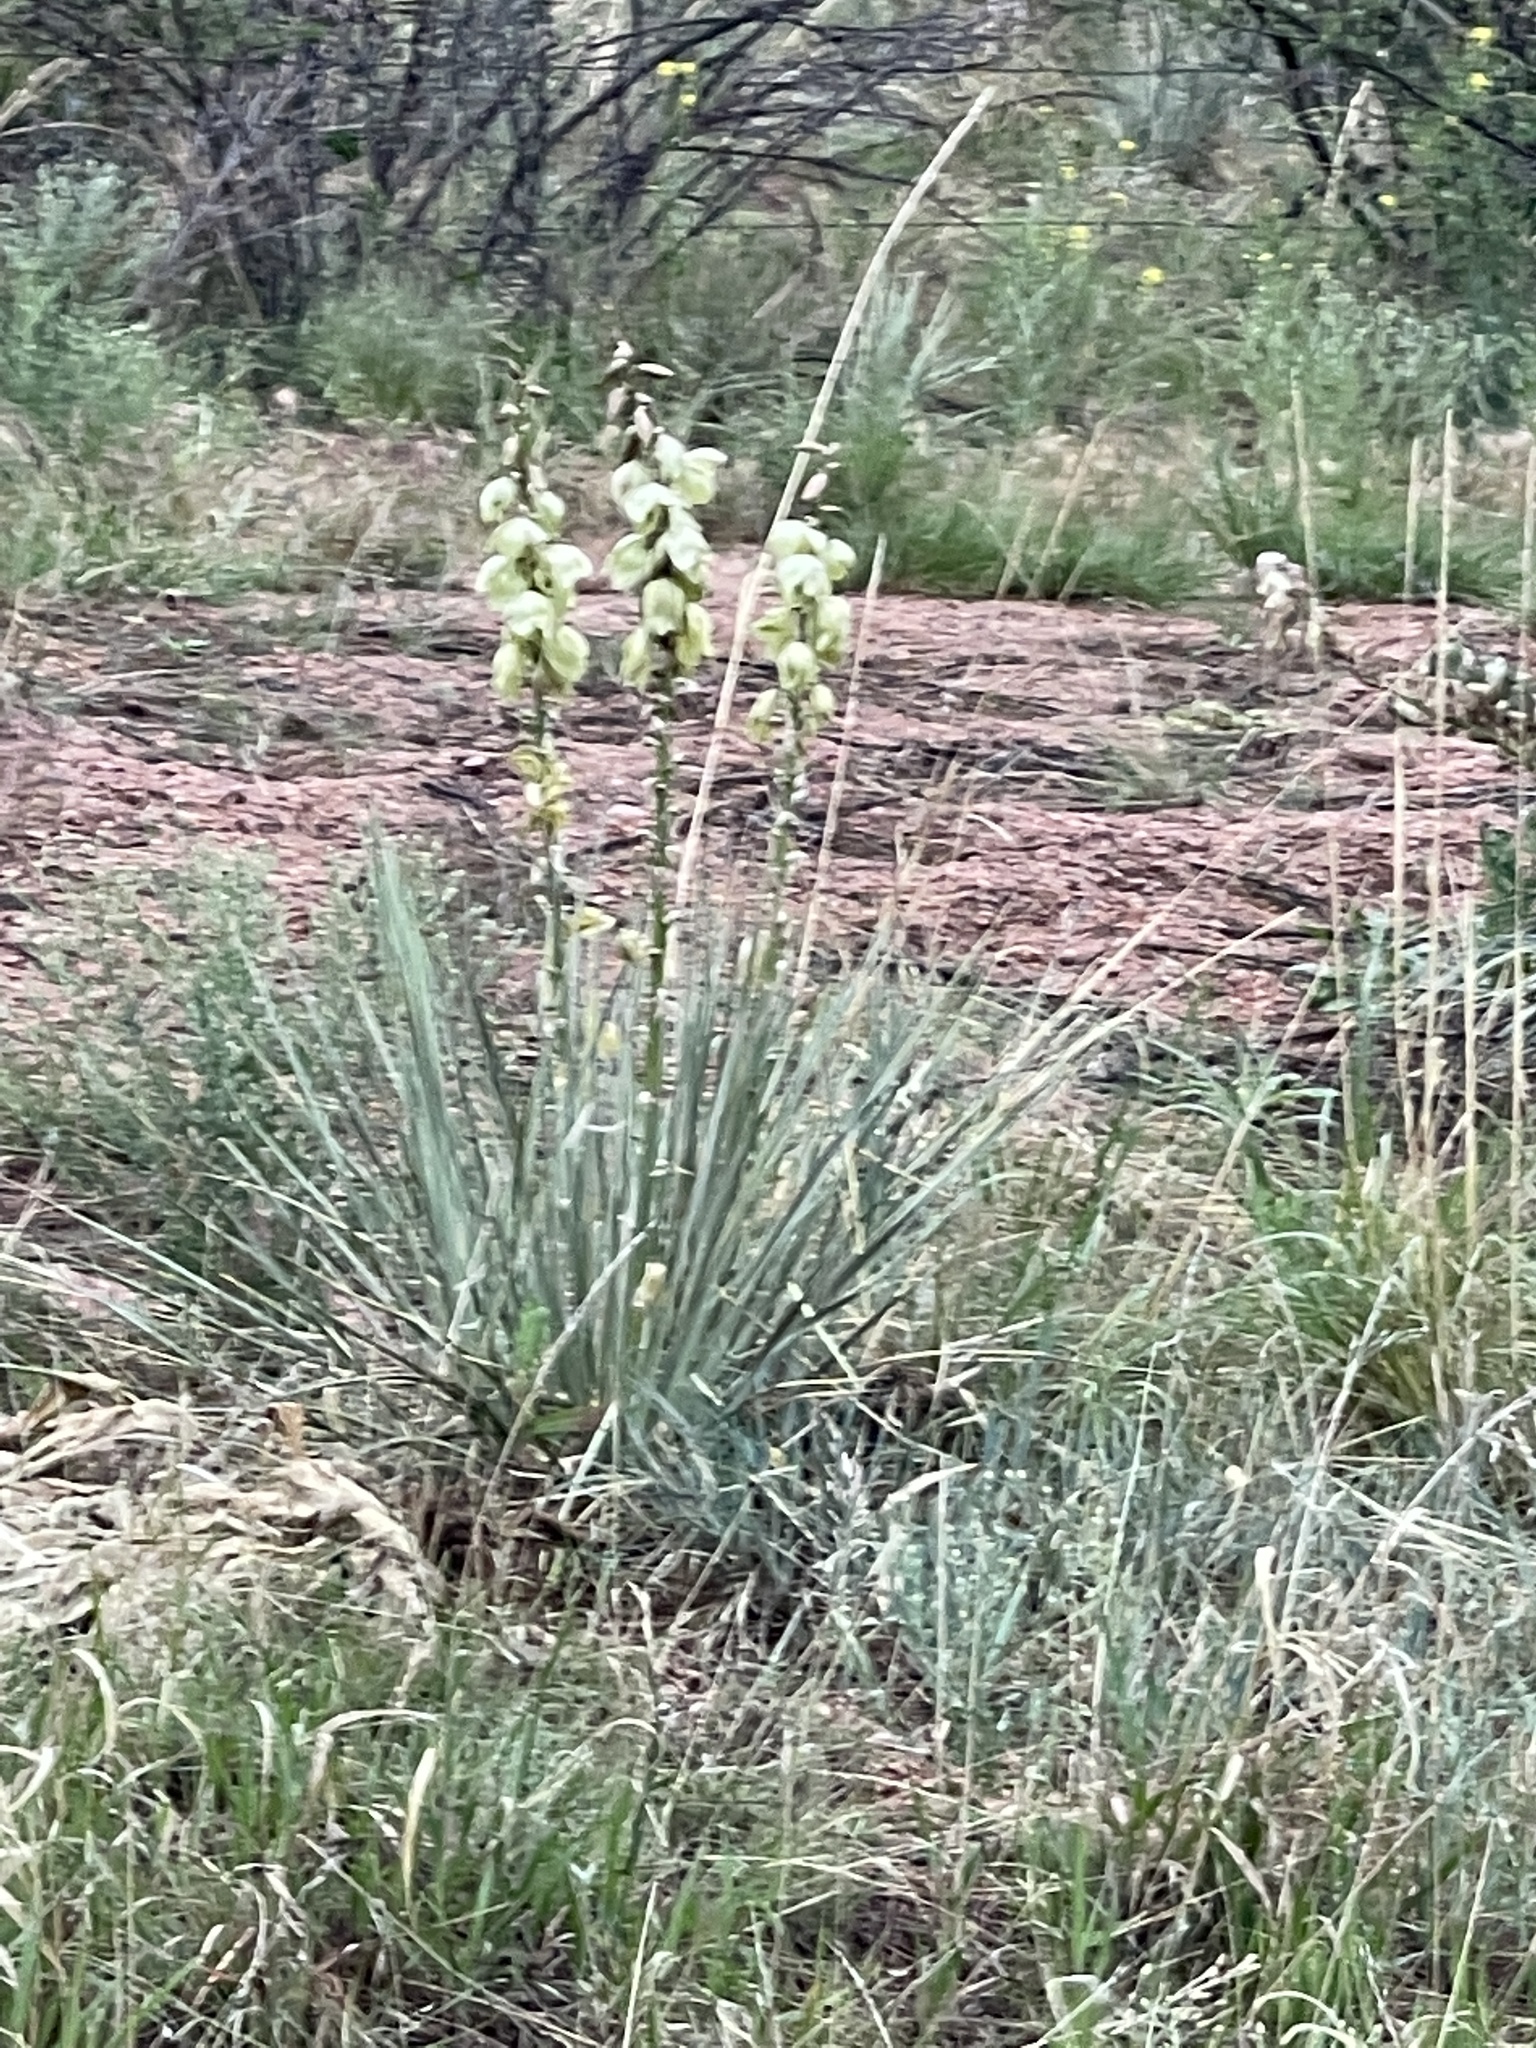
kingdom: Plantae
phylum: Tracheophyta
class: Liliopsida
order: Asparagales
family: Asparagaceae
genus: Yucca
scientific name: Yucca glauca
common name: Great plains yucca
